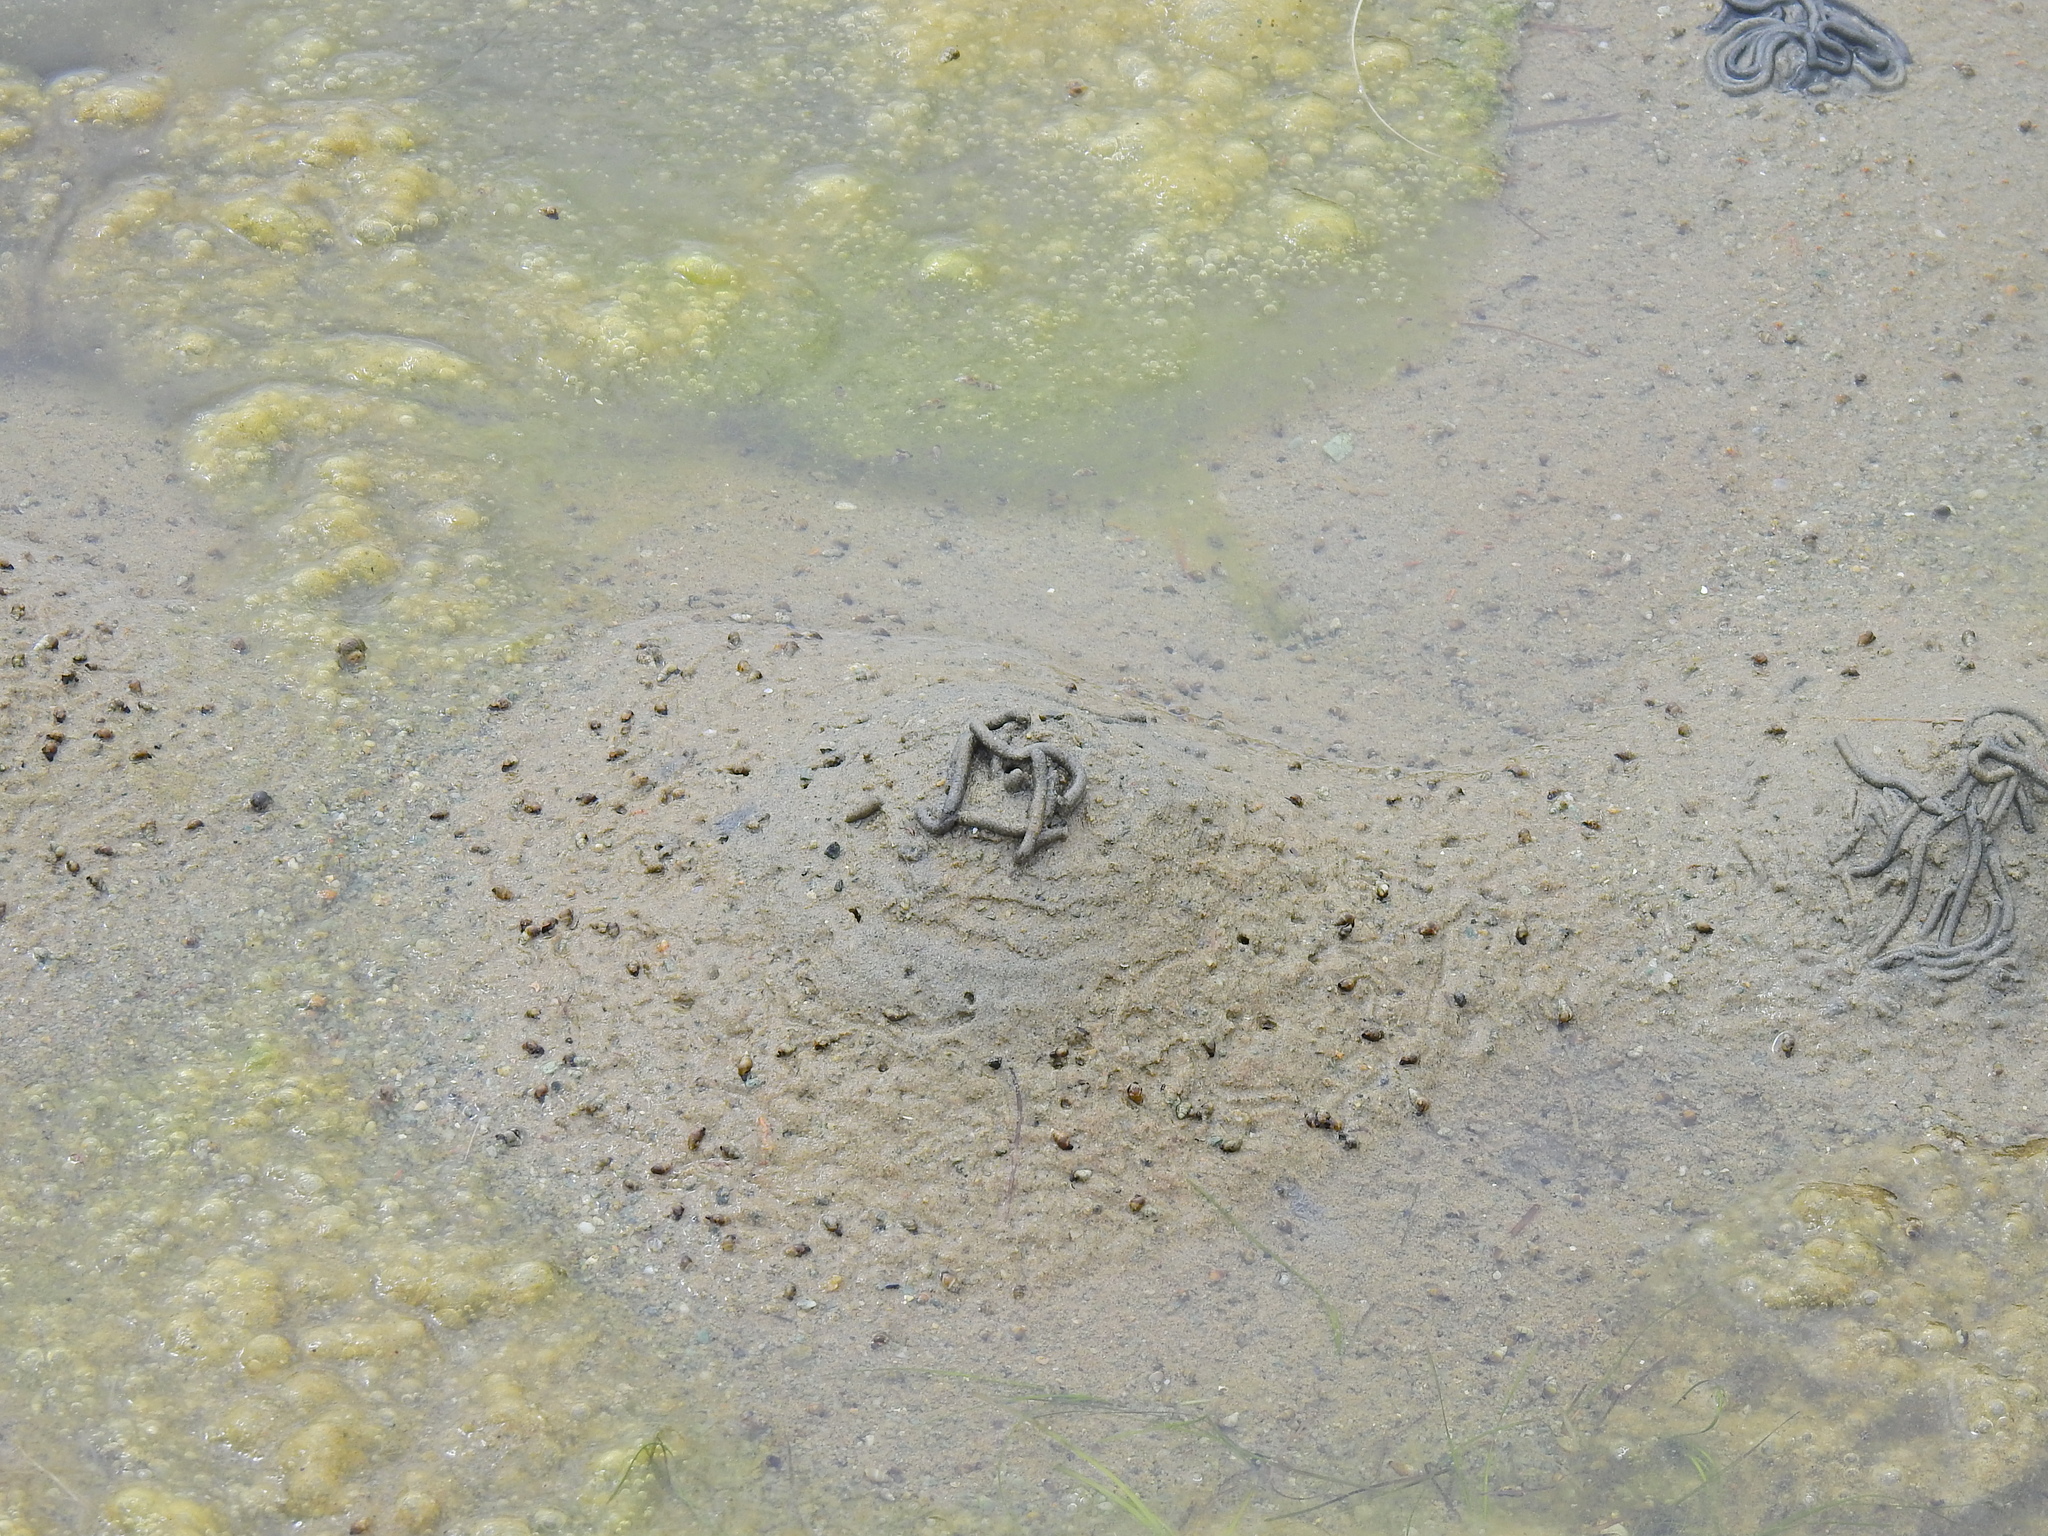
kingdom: Animalia
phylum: Annelida
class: Polychaeta
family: Arenicolidae
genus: Arenicola
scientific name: Arenicola marina
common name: Blow lugworm
